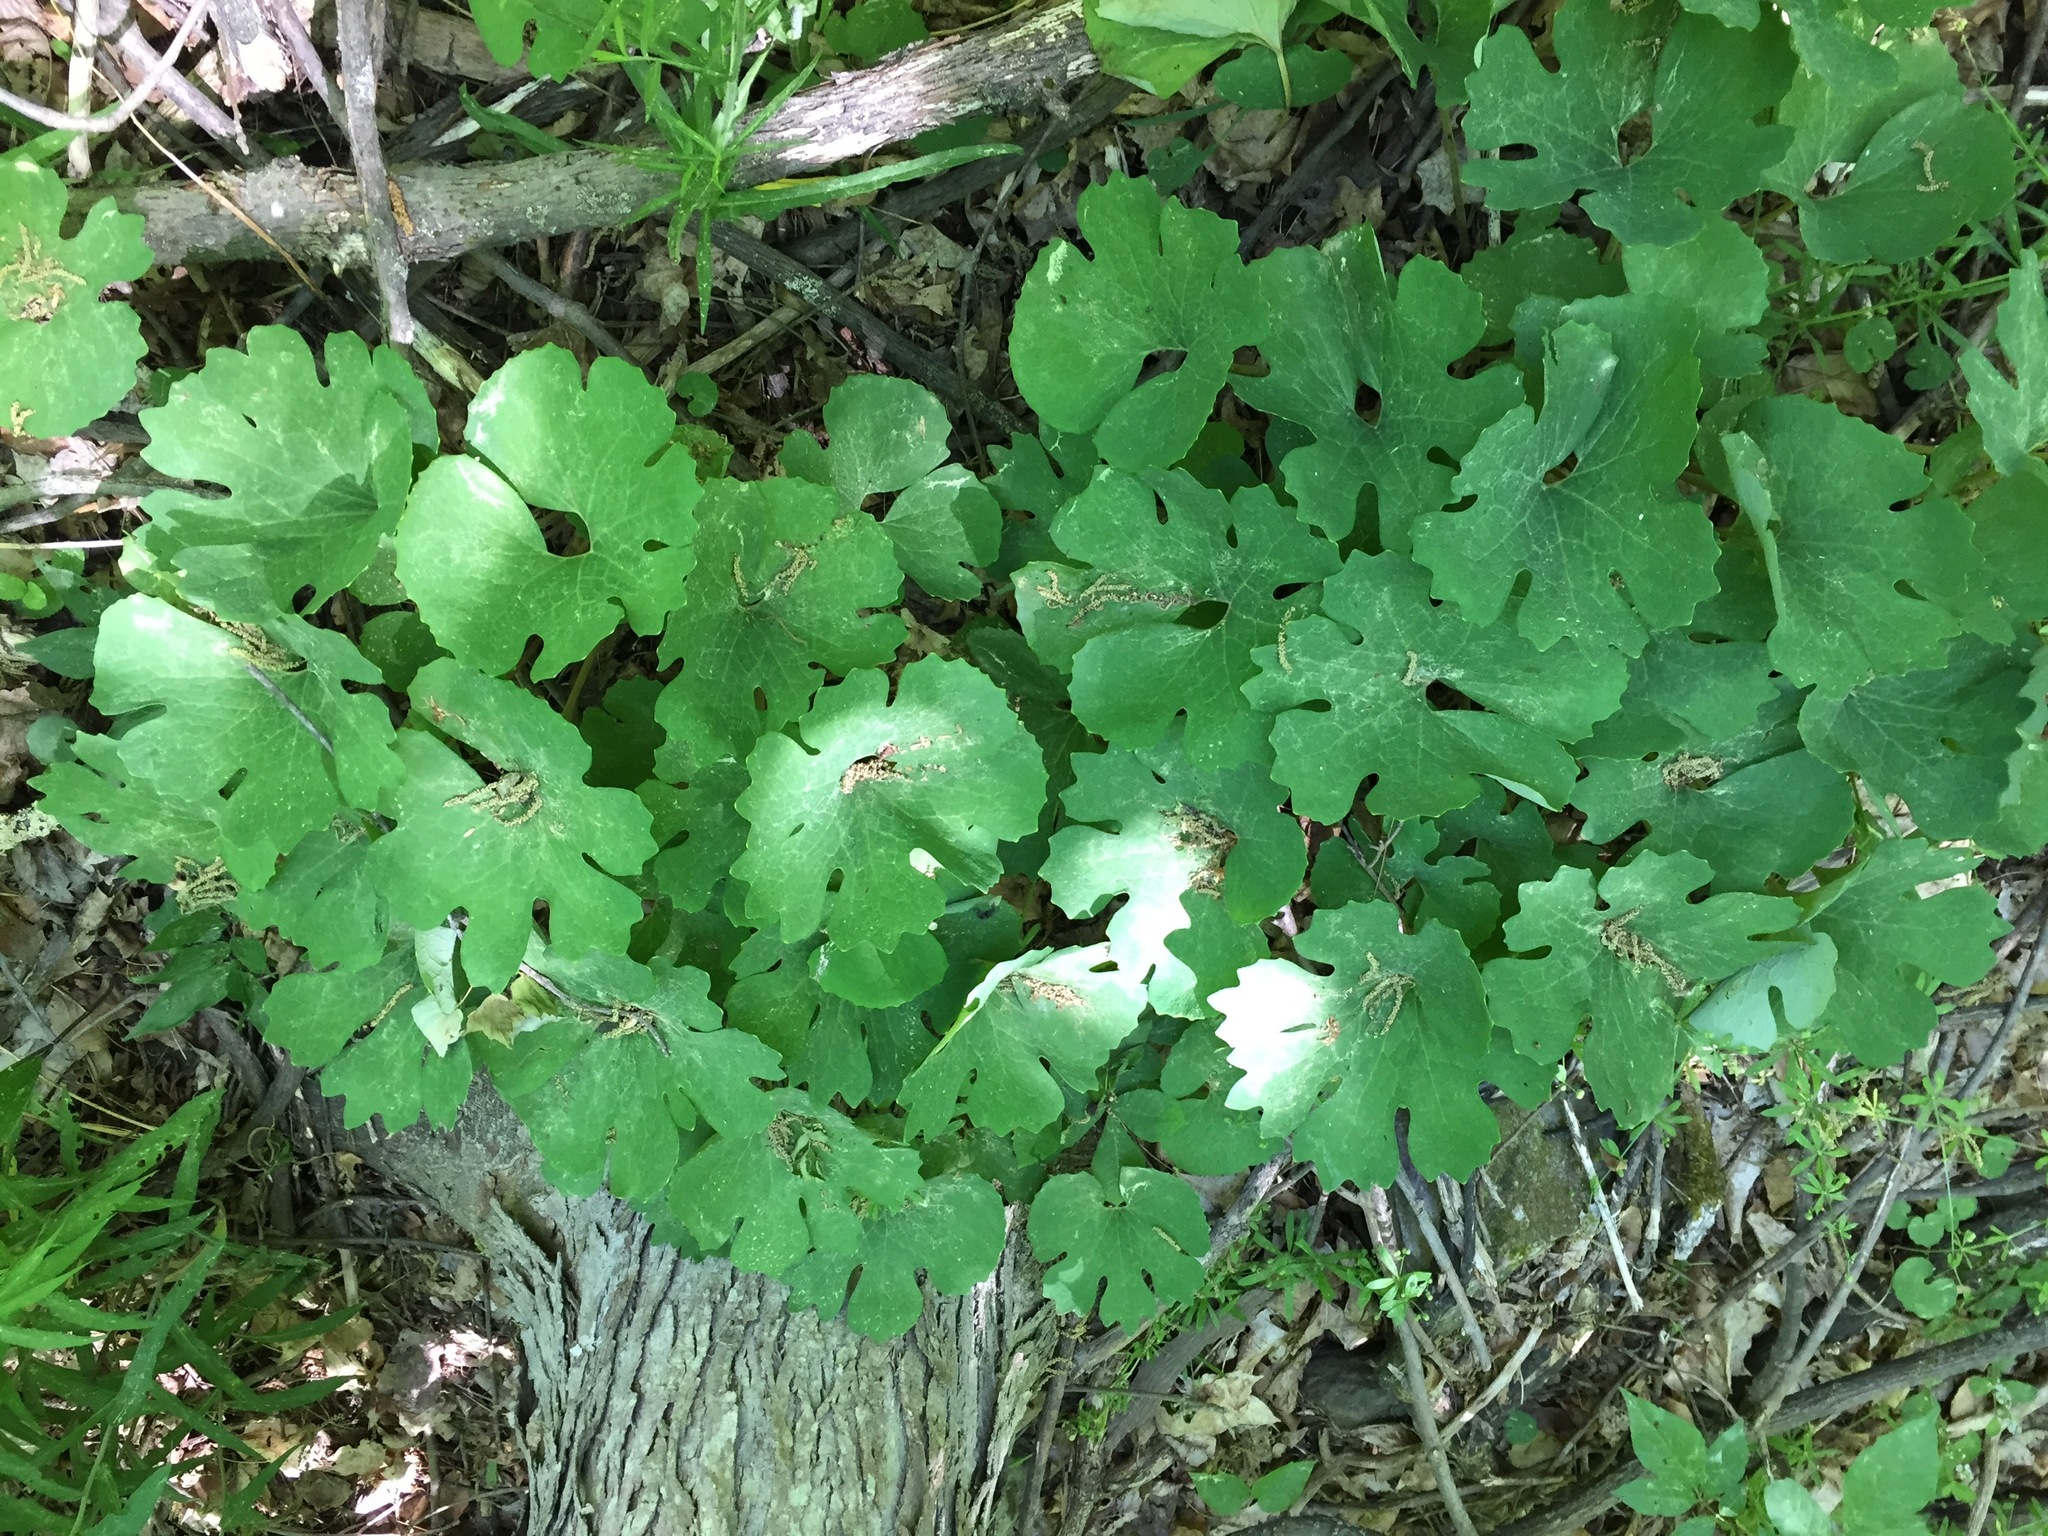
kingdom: Plantae
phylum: Tracheophyta
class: Magnoliopsida
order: Ranunculales
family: Papaveraceae
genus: Sanguinaria
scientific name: Sanguinaria canadensis
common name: Bloodroot
